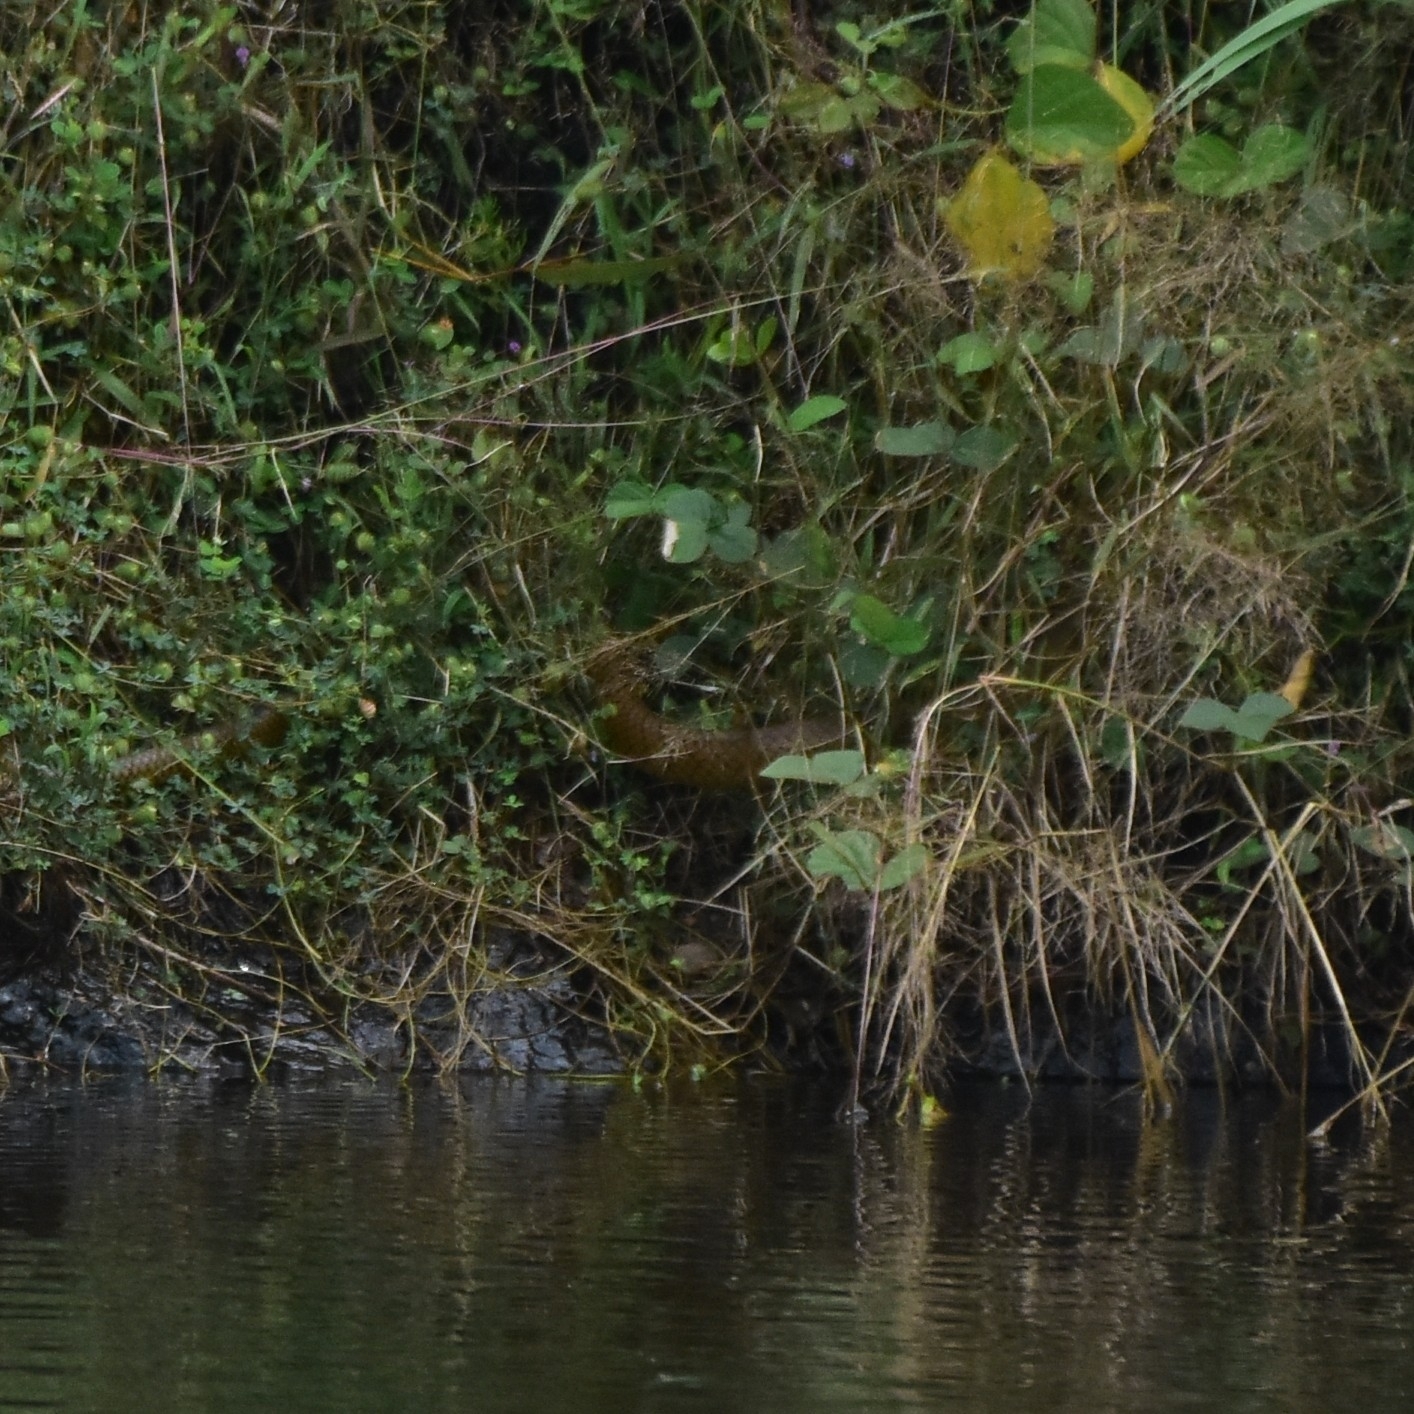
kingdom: Animalia
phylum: Chordata
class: Squamata
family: Colubridae
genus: Ptyas
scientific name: Ptyas mucosa
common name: Oriental ratsnake
